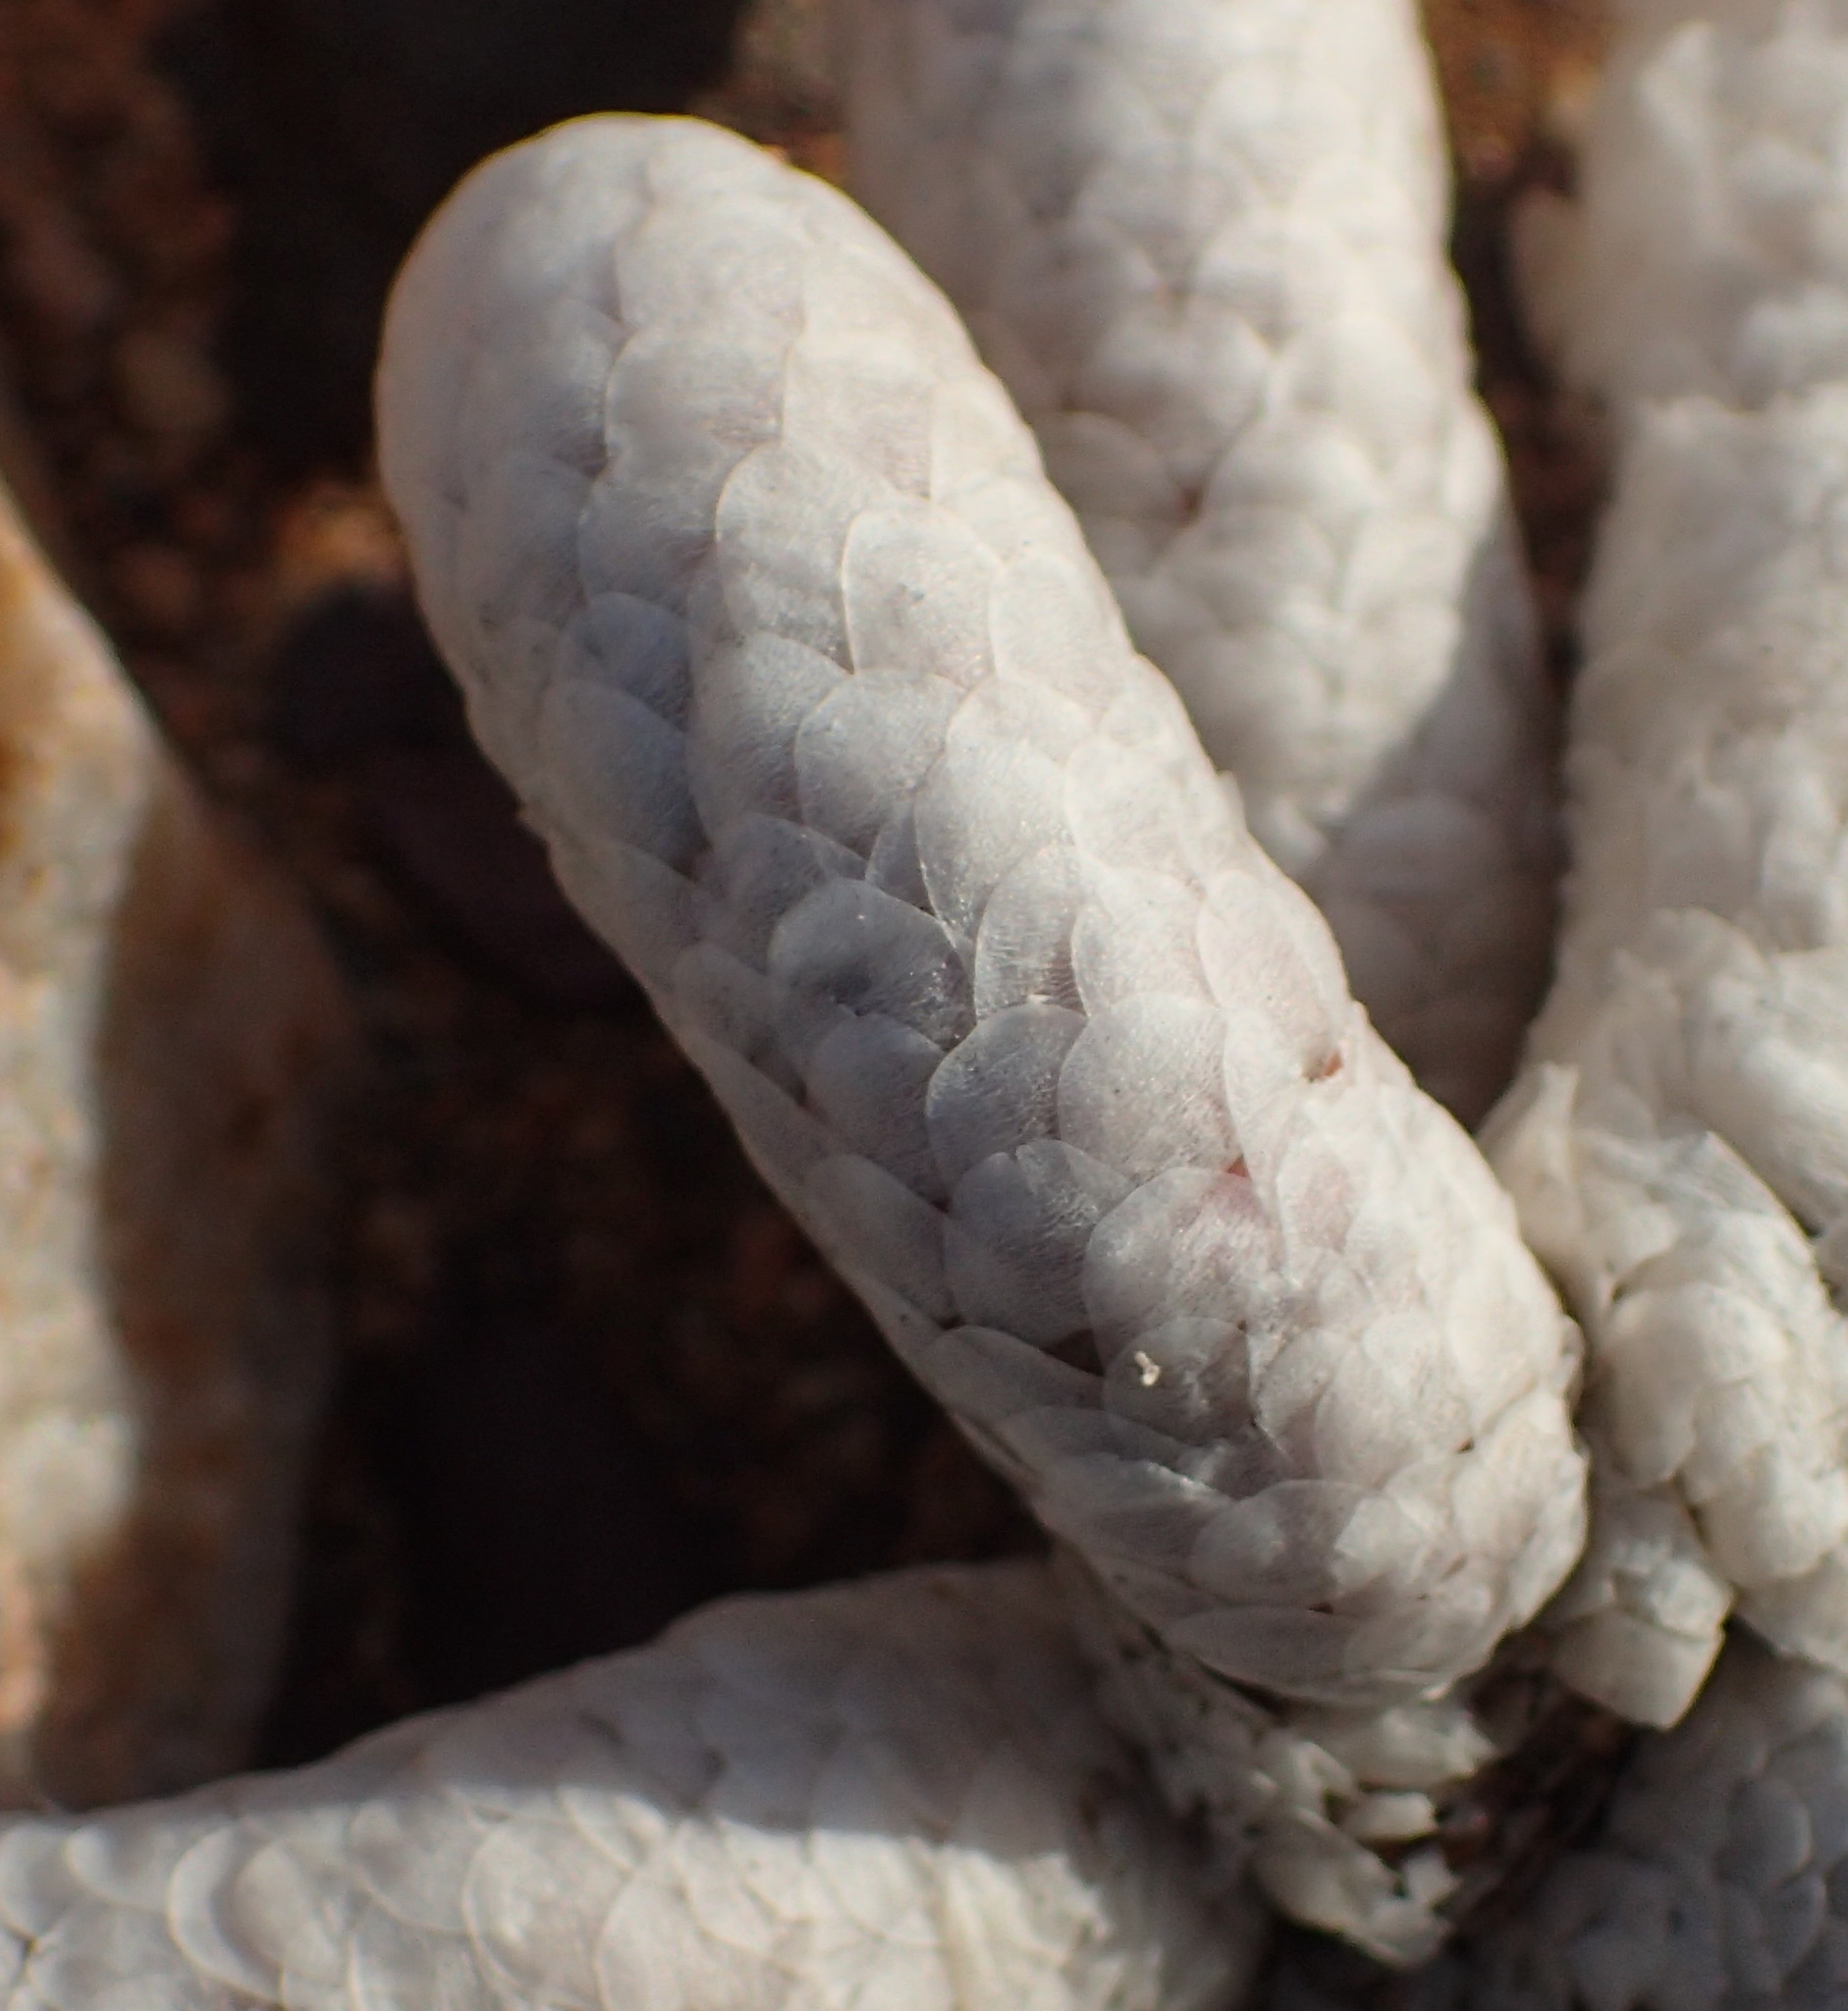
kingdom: Plantae
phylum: Tracheophyta
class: Magnoliopsida
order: Caryophyllales
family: Anacampserotaceae
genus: Avonia
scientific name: Avonia papyracea
